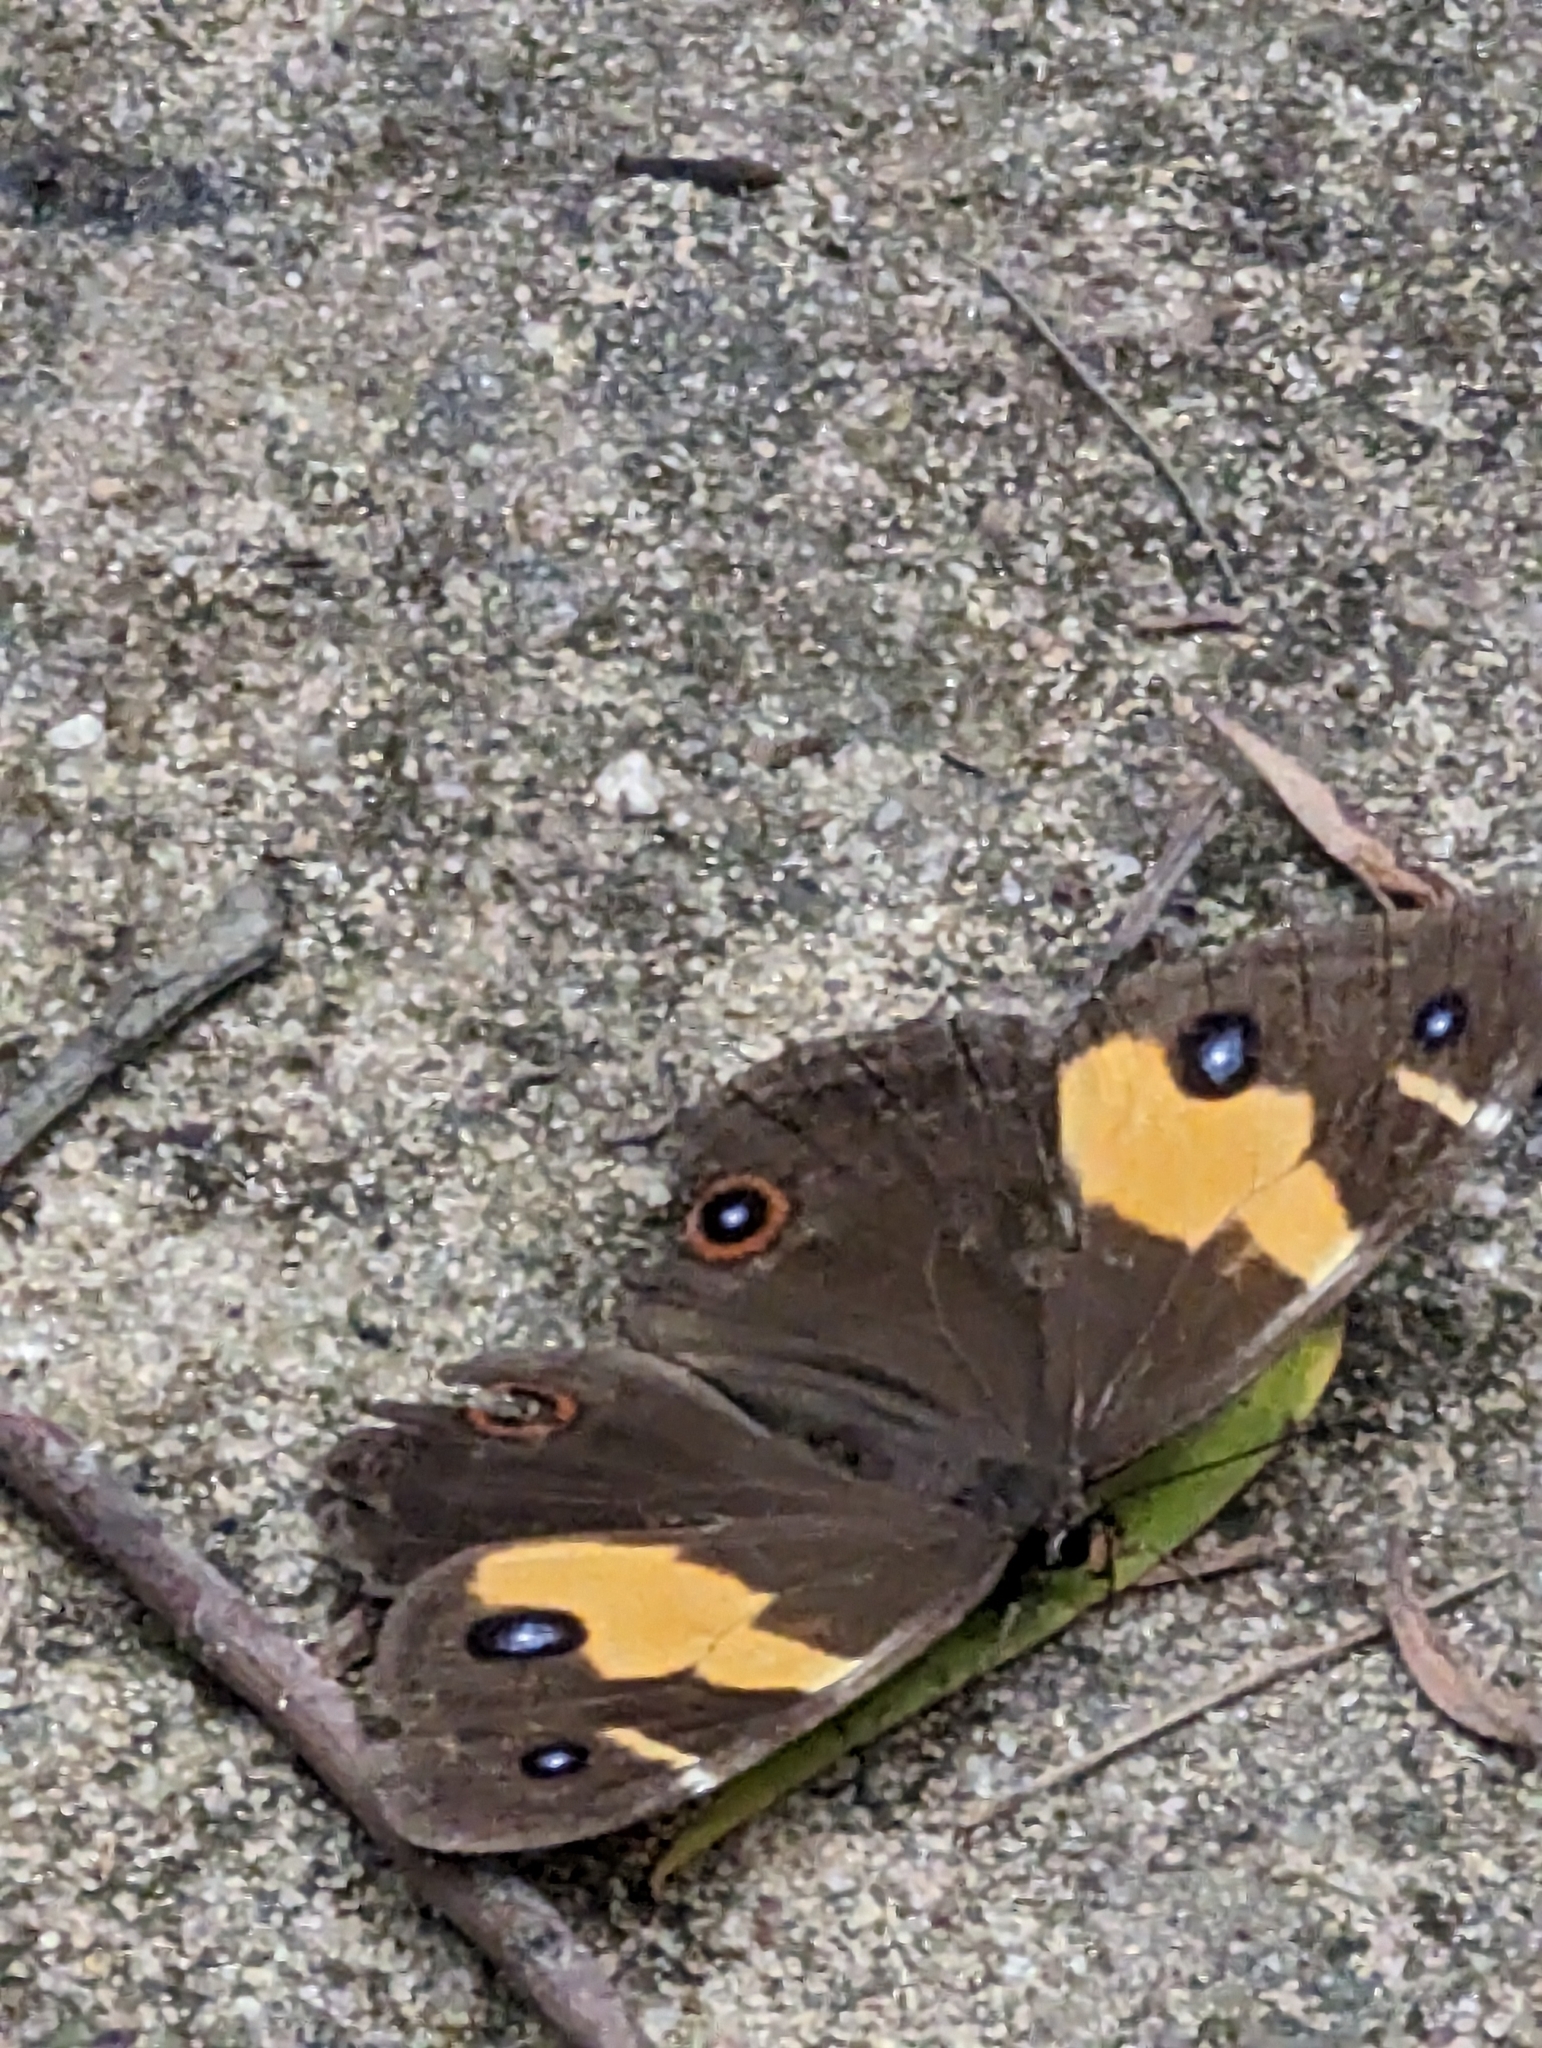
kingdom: Animalia
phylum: Arthropoda
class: Insecta
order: Lepidoptera
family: Nymphalidae
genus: Tisiphone
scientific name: Tisiphone abeona
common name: Swordgrass brown
